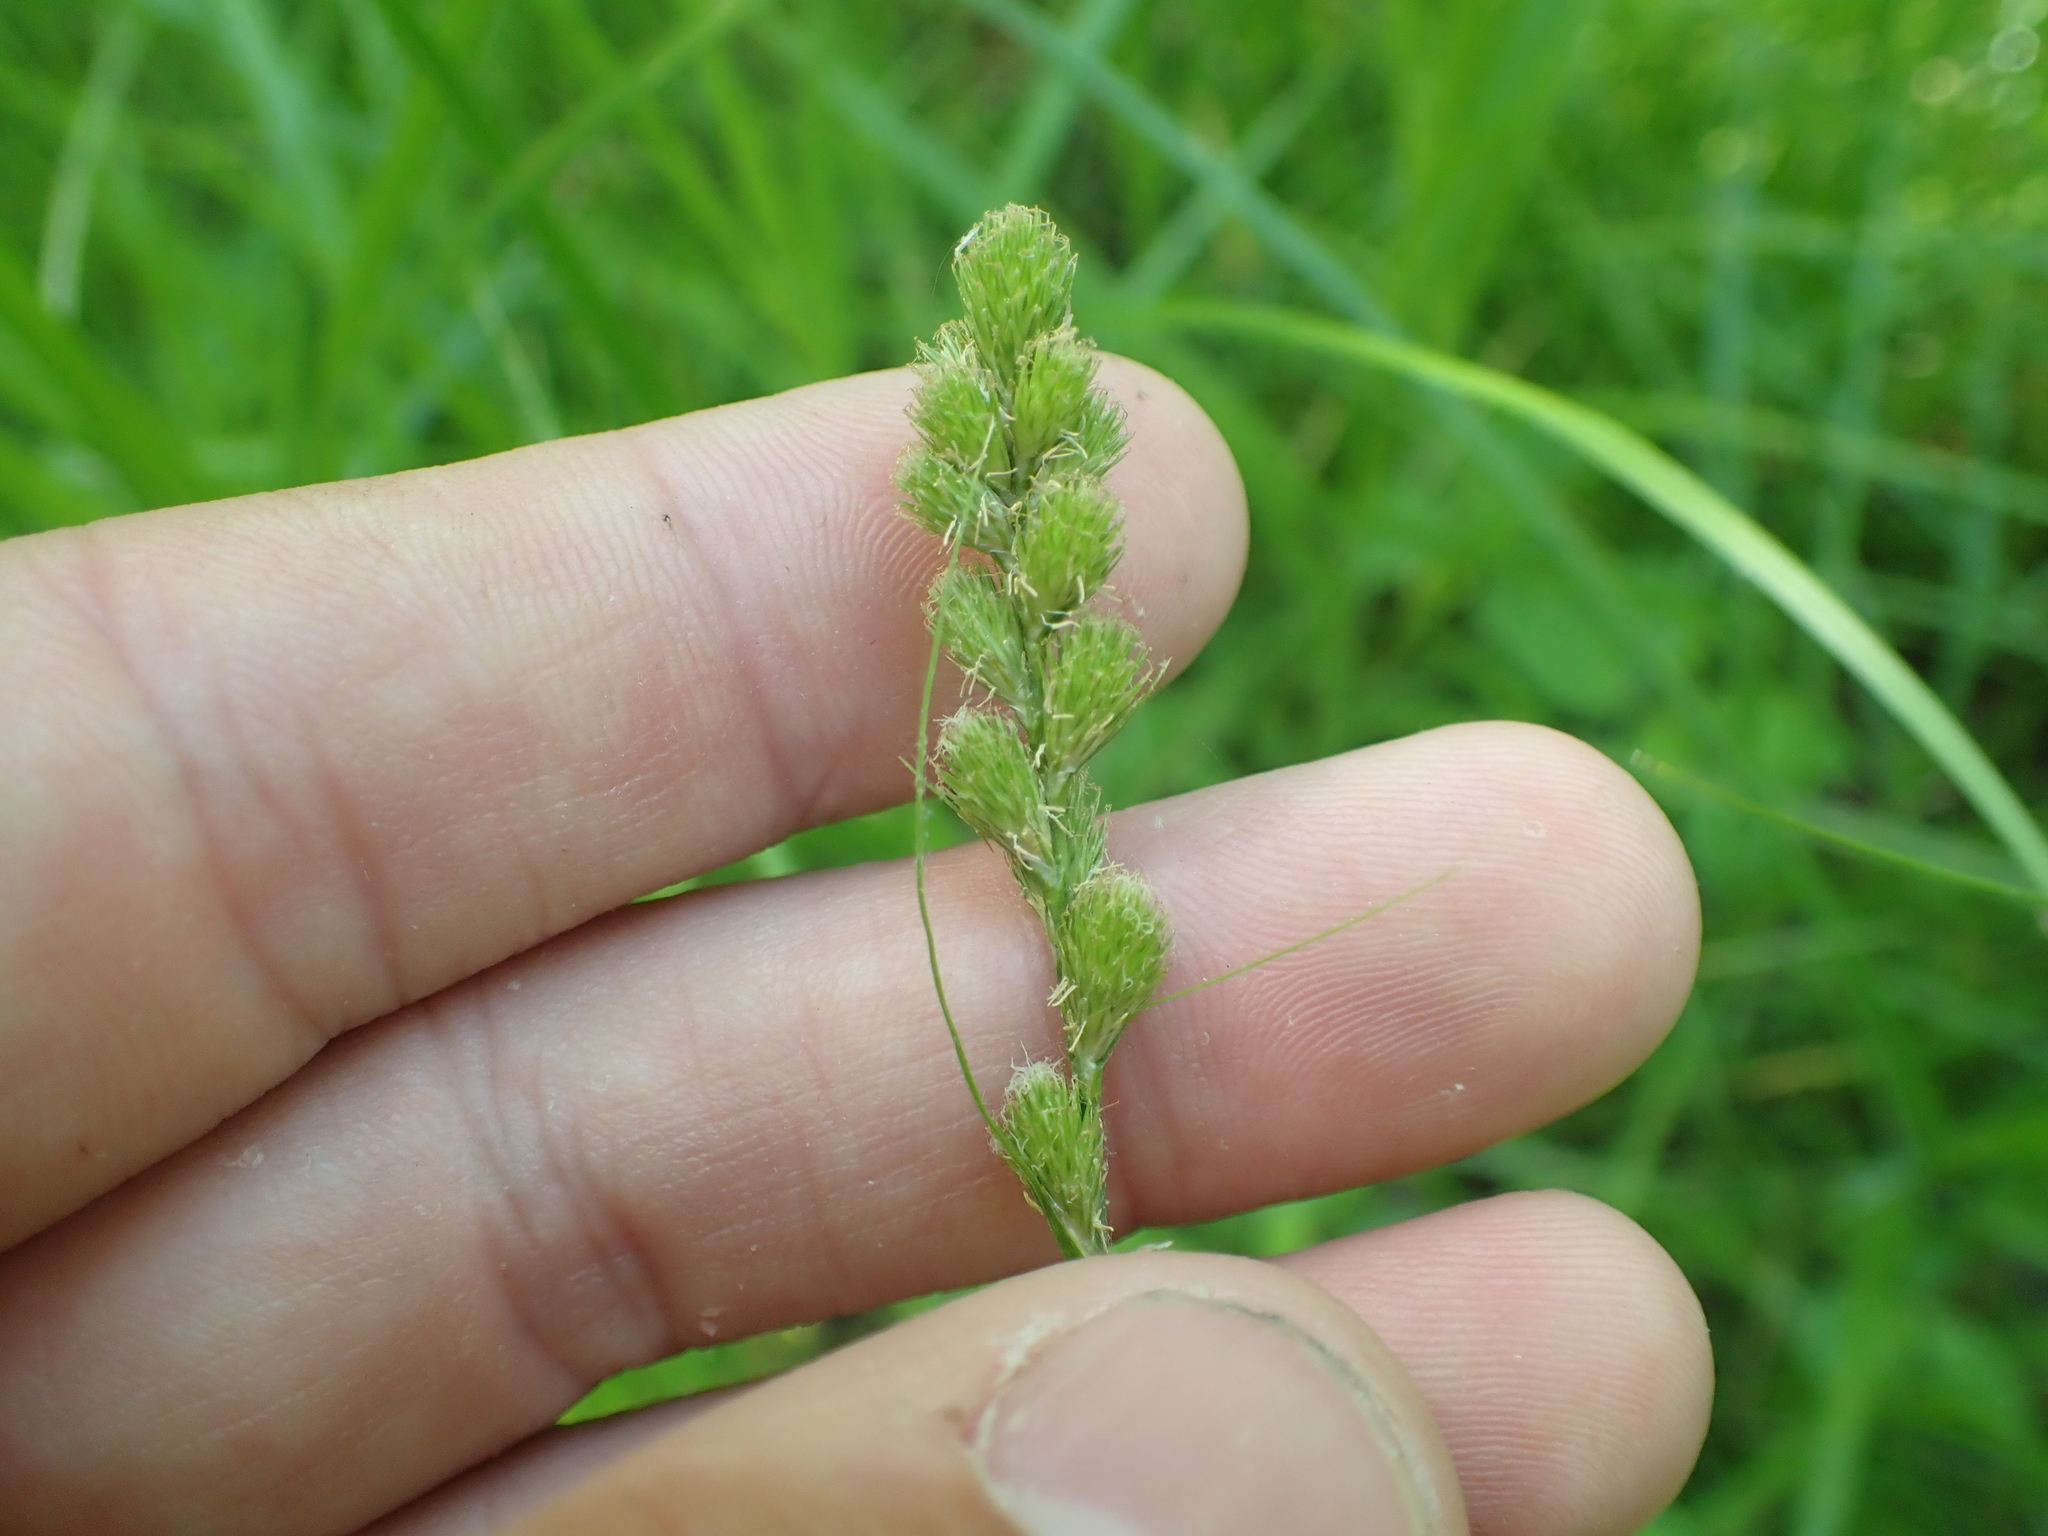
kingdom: Plantae
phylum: Tracheophyta
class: Liliopsida
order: Poales
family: Cyperaceae
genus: Carex
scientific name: Carex tribuloides
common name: Blunt broom sedge
